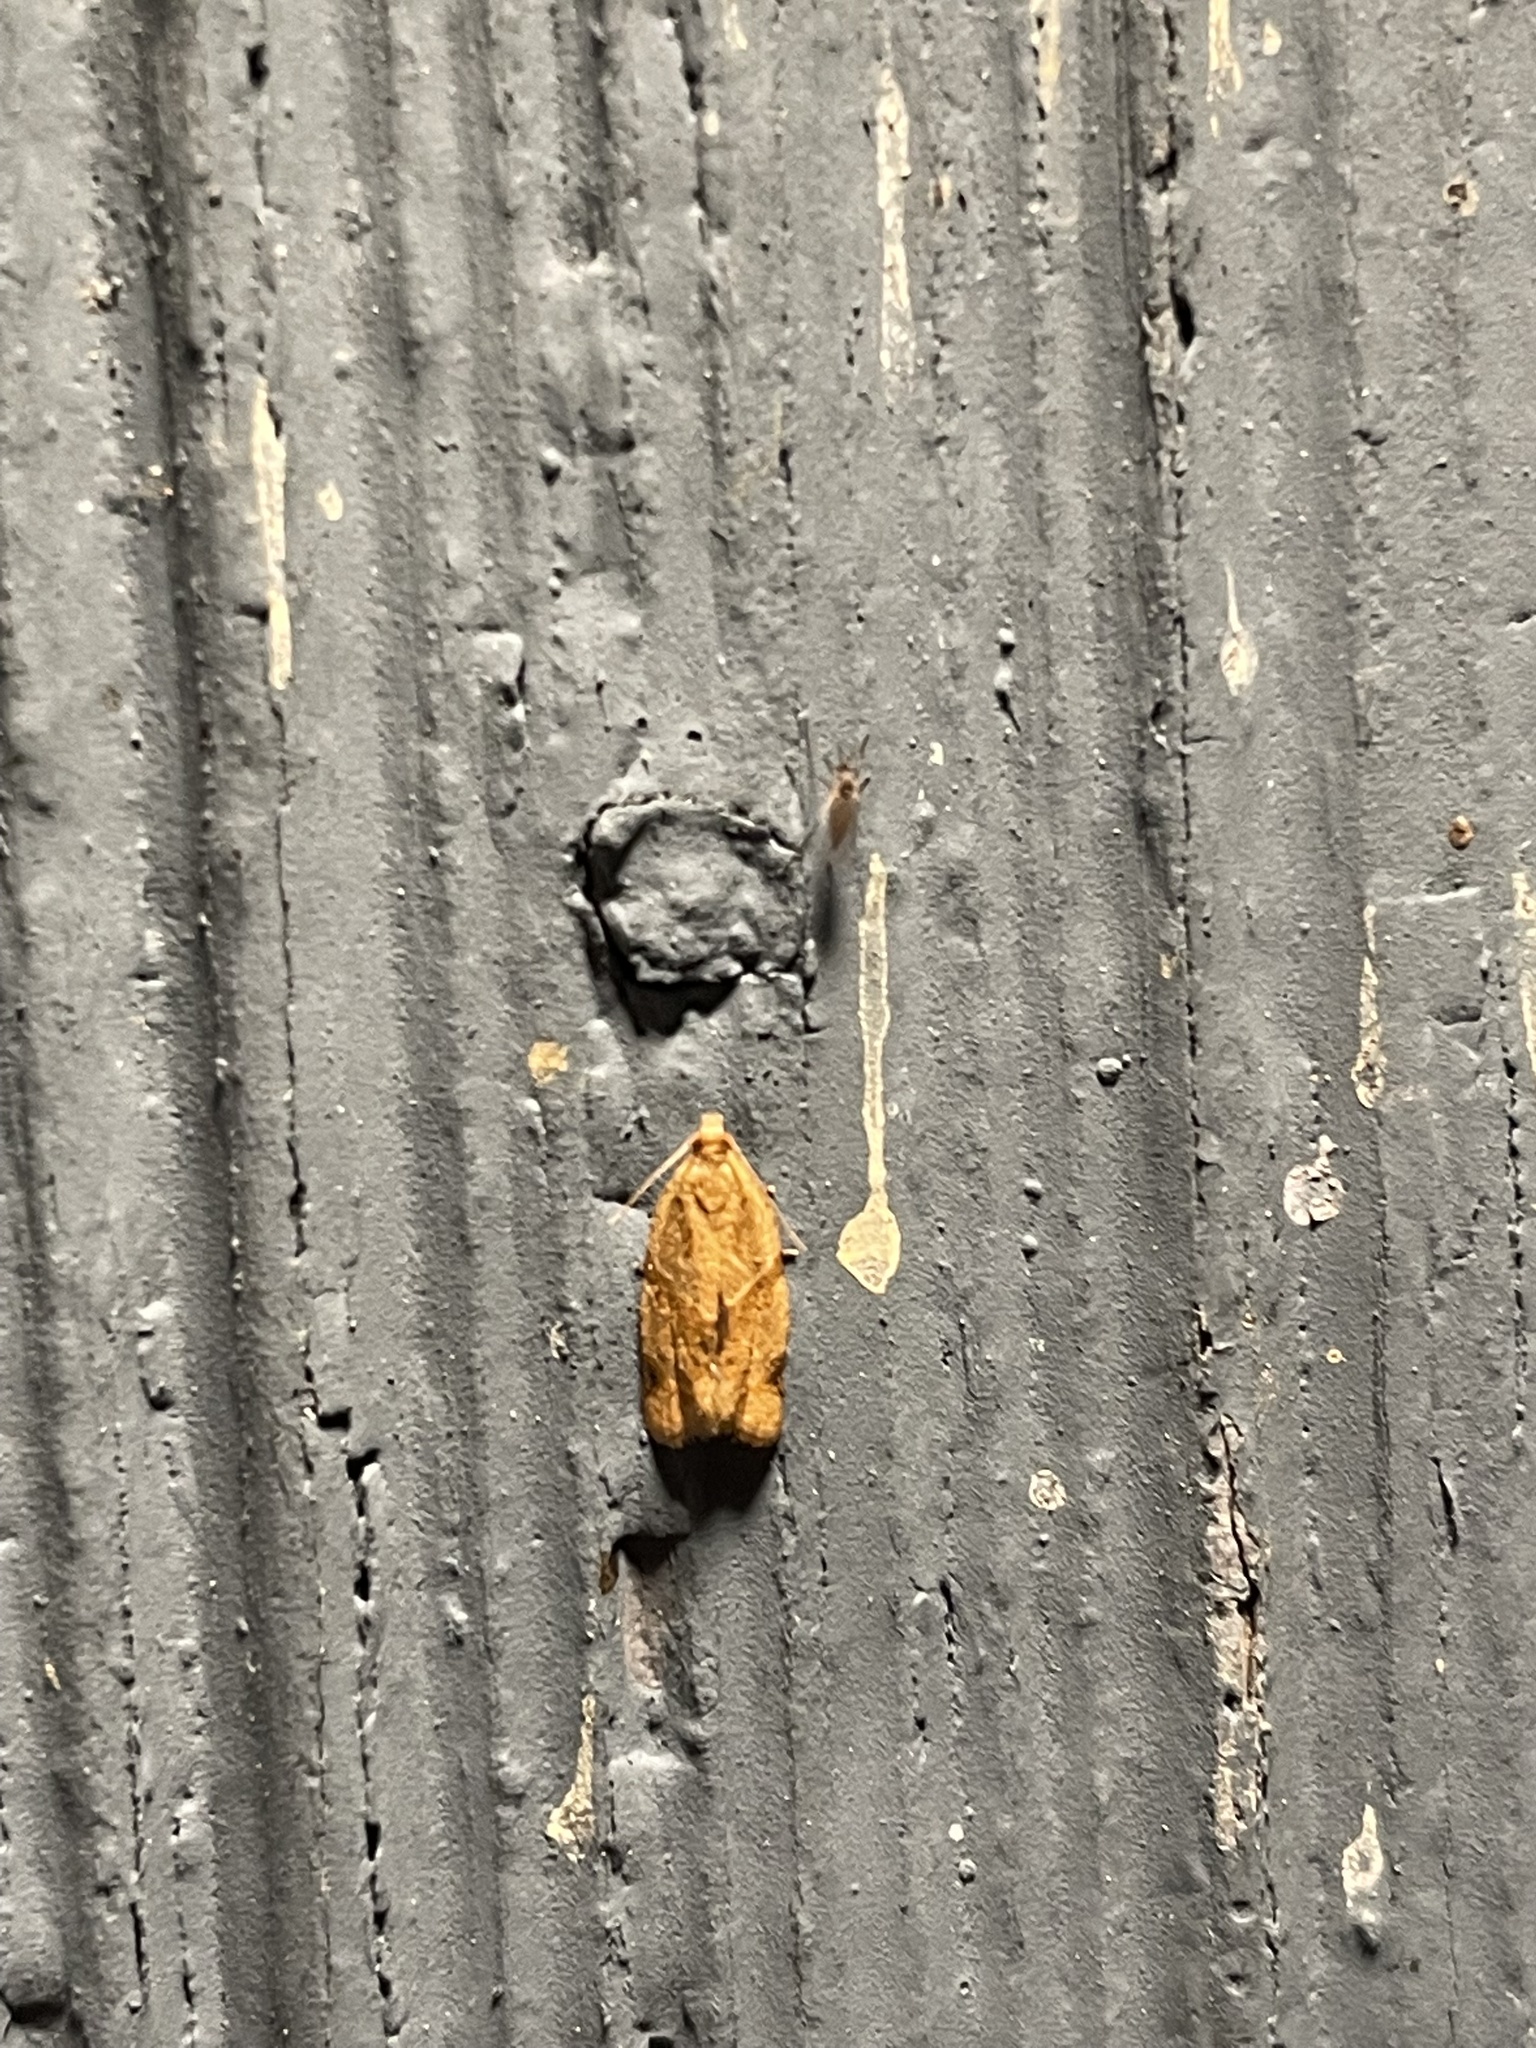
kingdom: Animalia
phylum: Arthropoda
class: Insecta
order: Lepidoptera
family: Tortricidae
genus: Clepsis
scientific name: Clepsis peritana
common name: Garden tortrix
